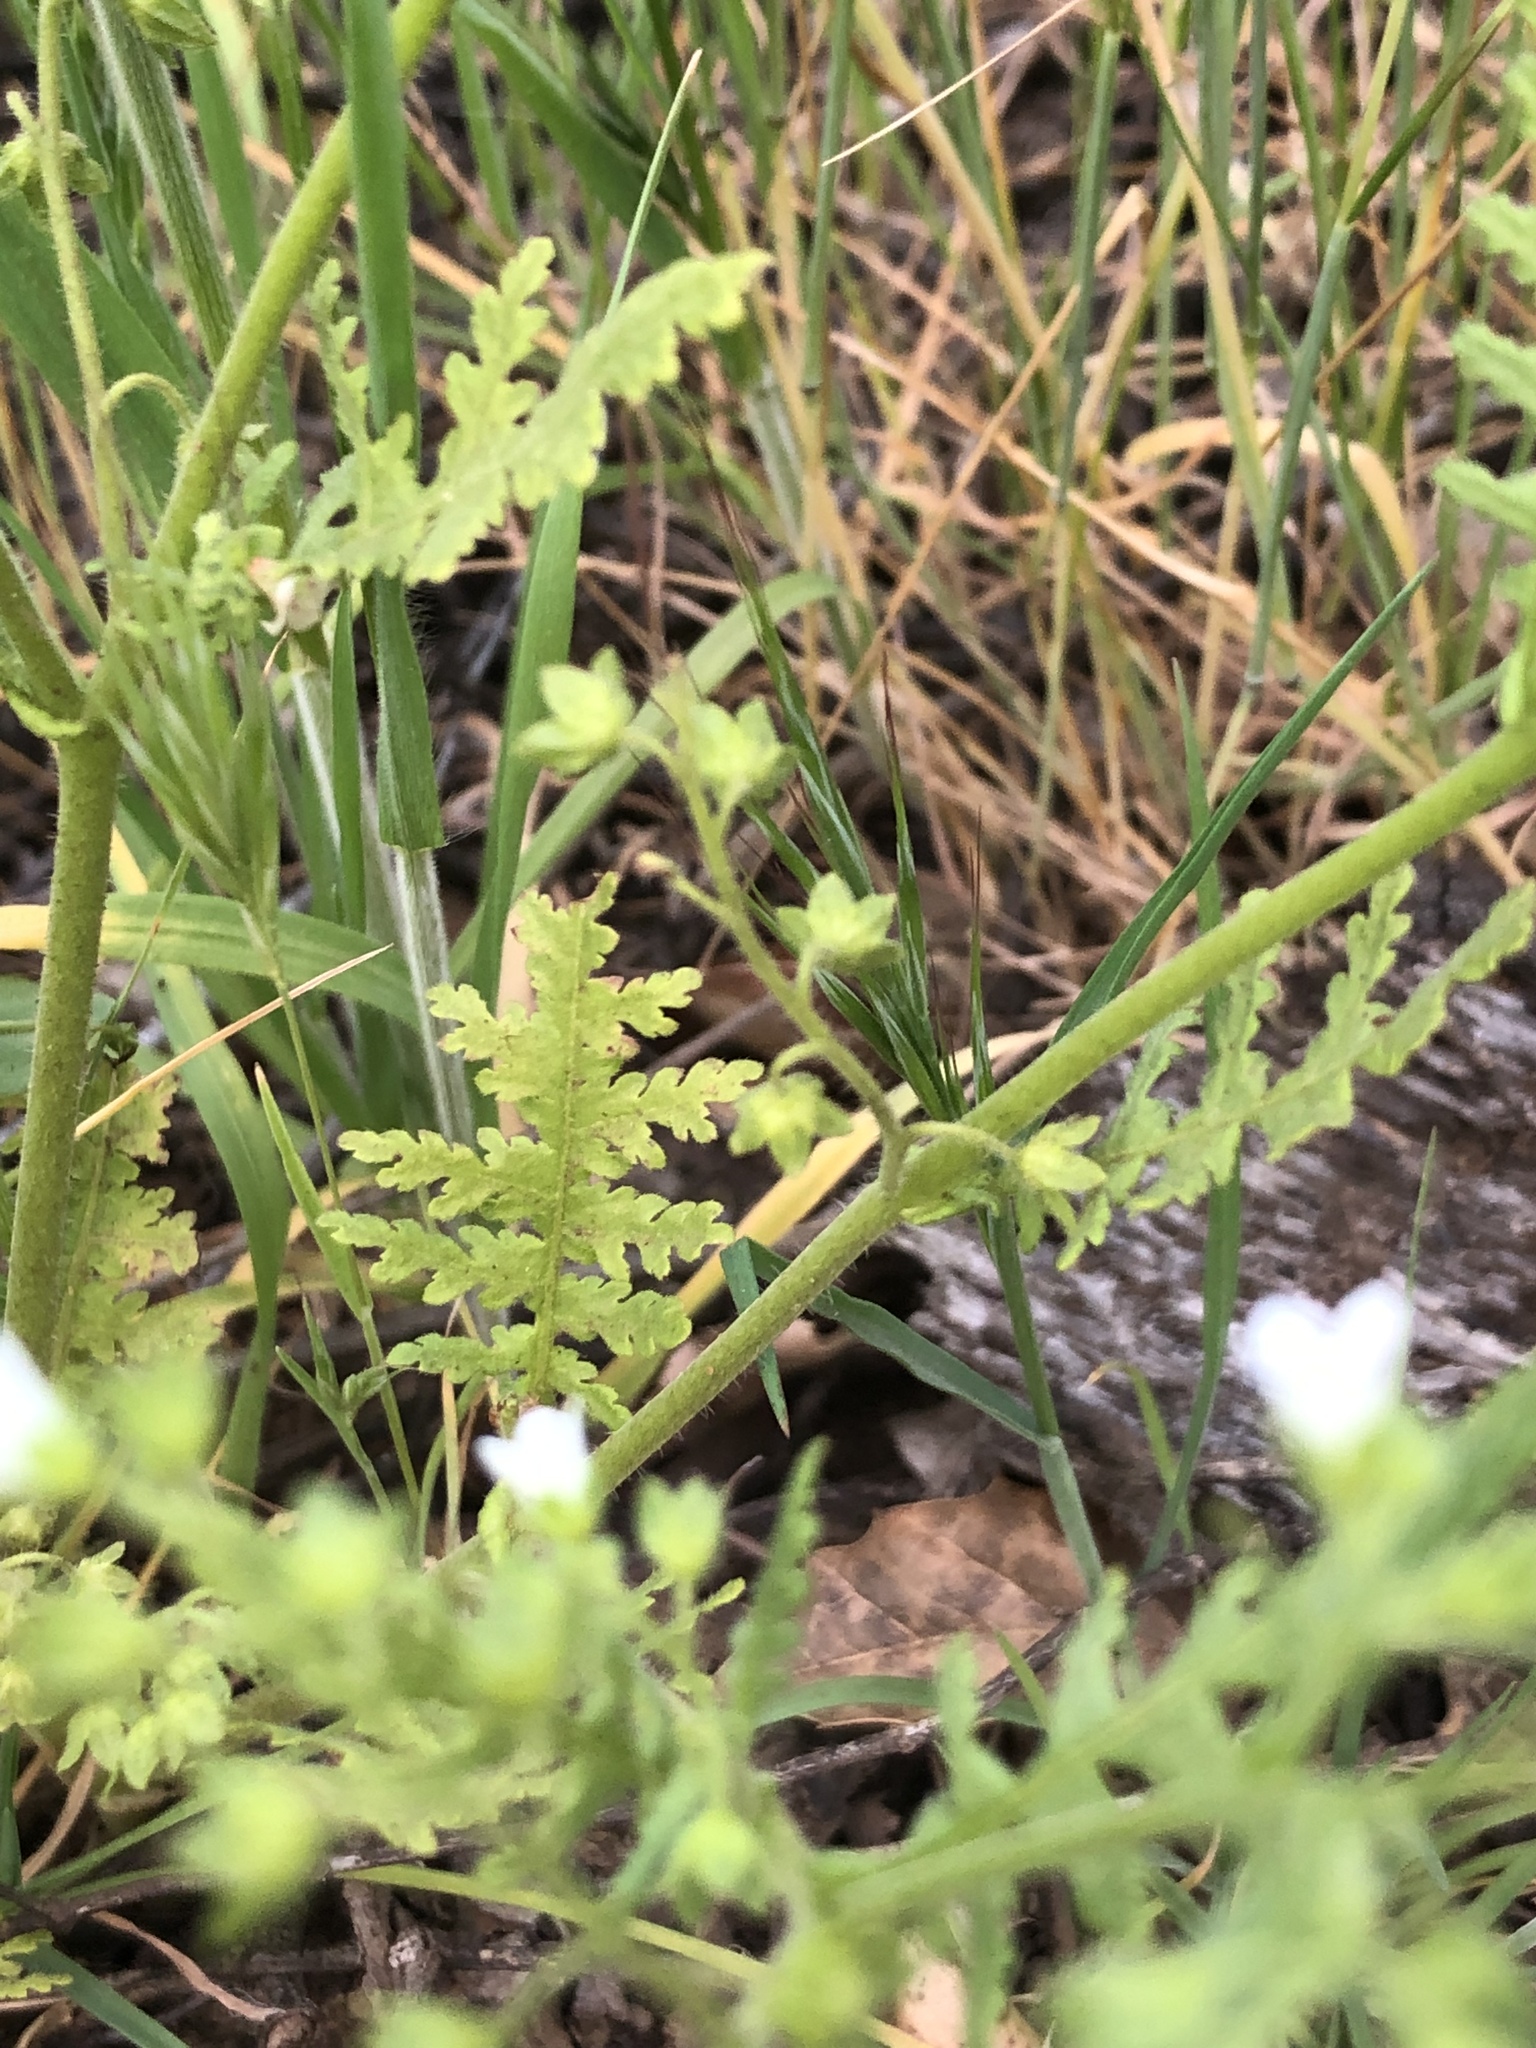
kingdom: Plantae
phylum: Tracheophyta
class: Magnoliopsida
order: Boraginales
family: Hydrophyllaceae
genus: Eucrypta
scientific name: Eucrypta chrysanthemifolia
